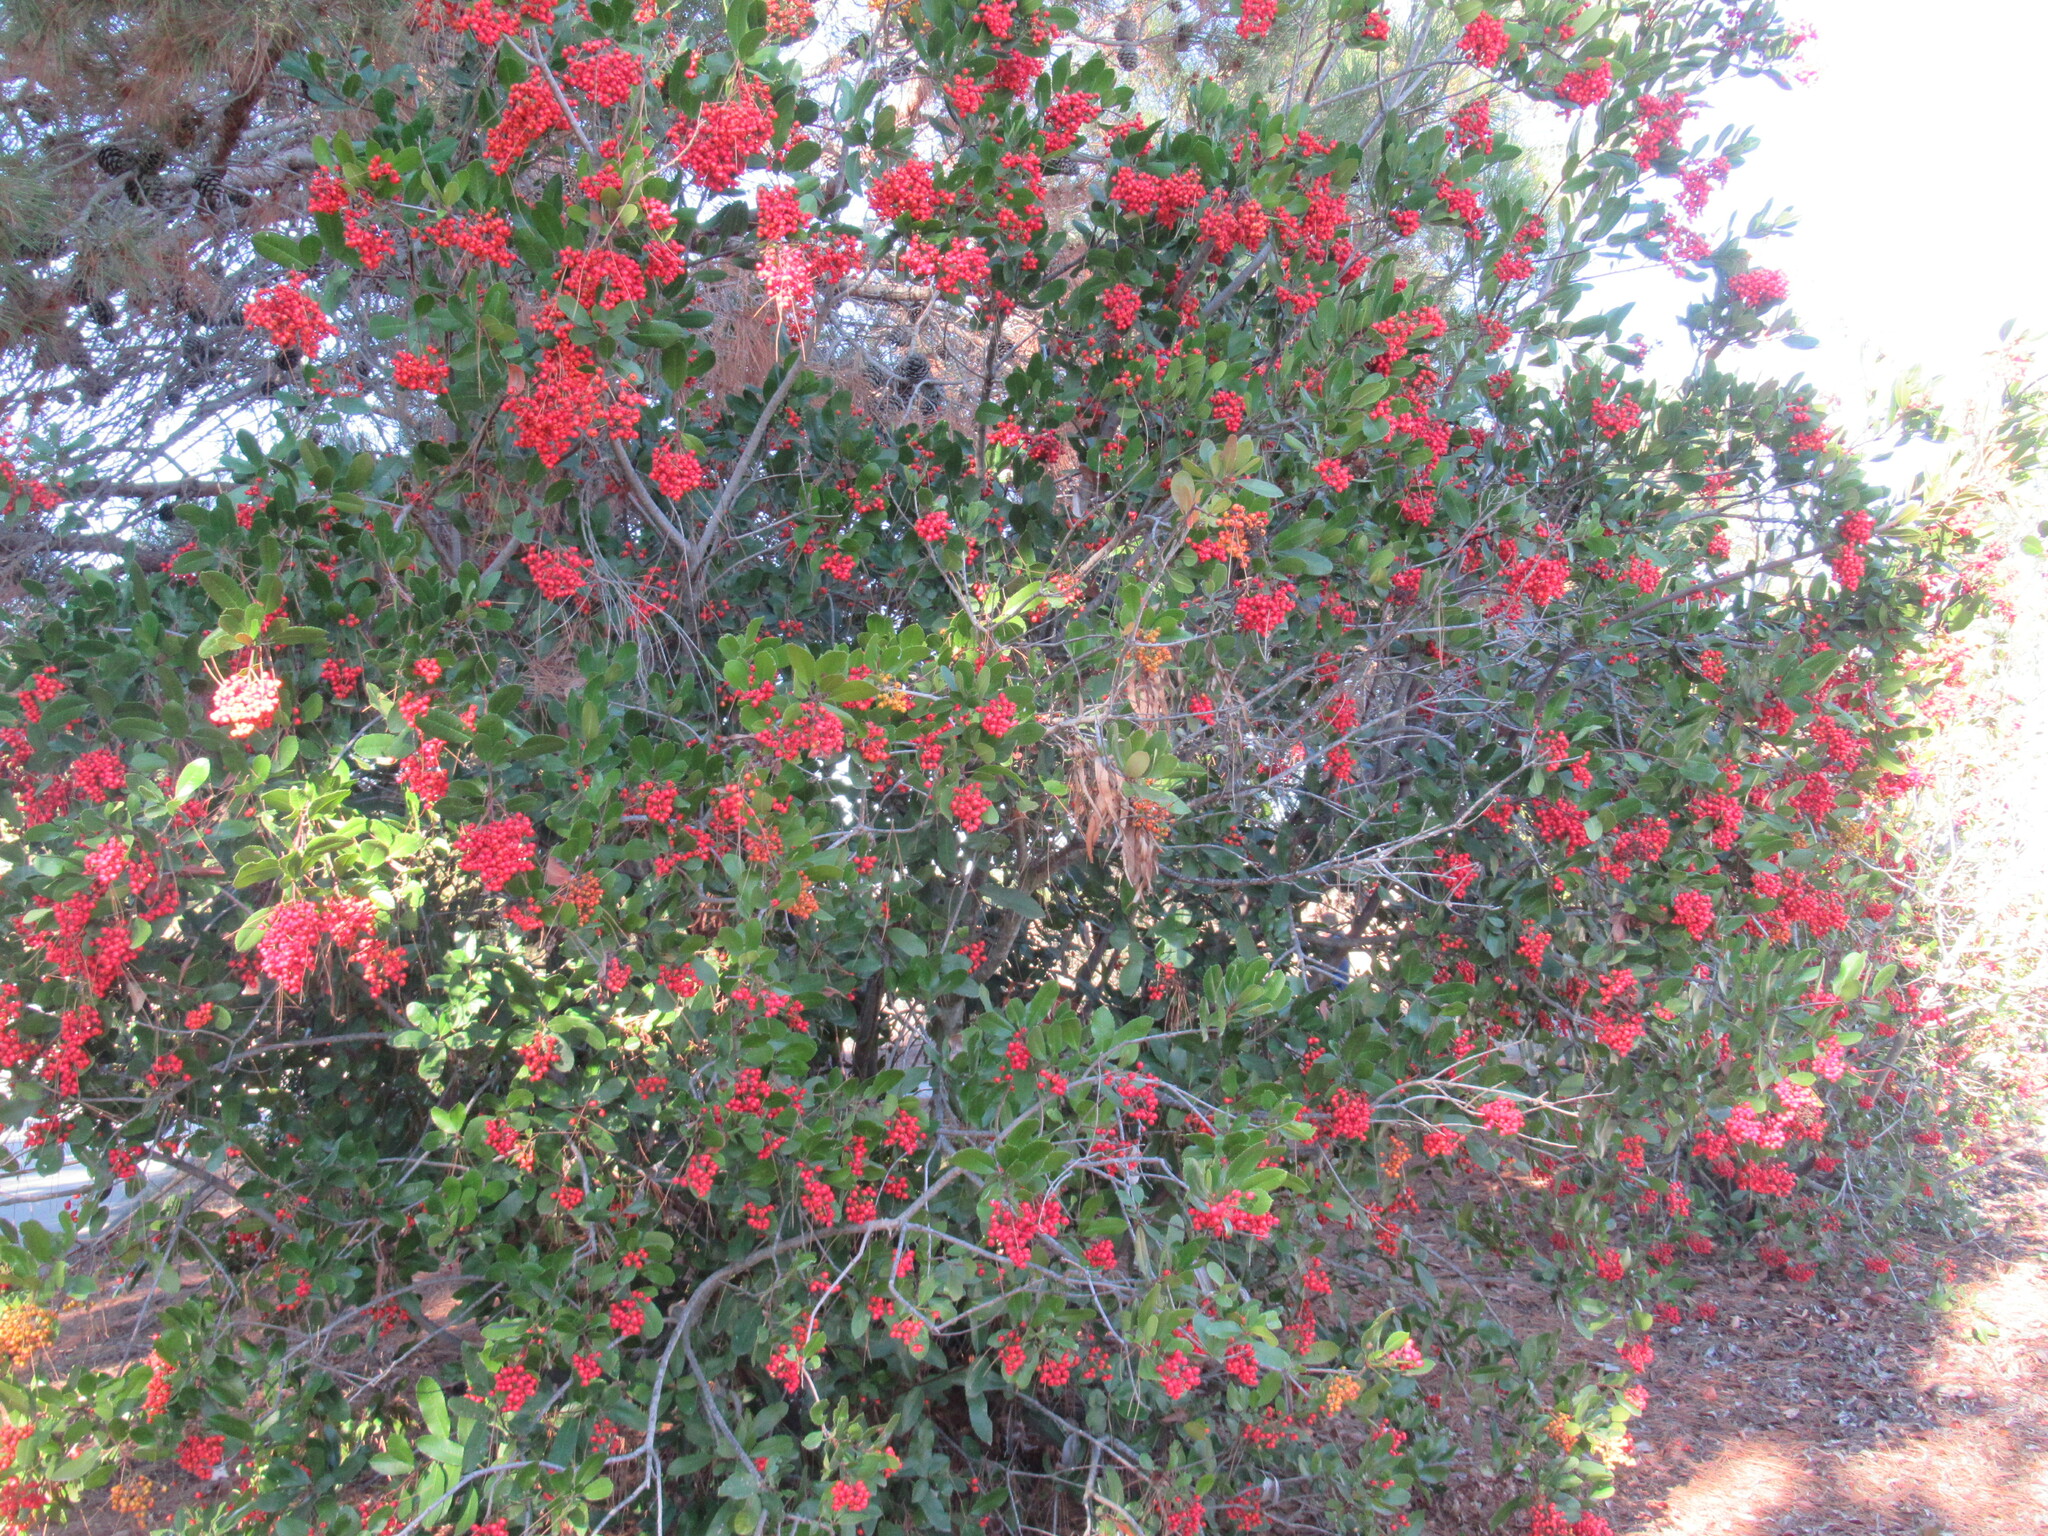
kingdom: Plantae
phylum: Tracheophyta
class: Magnoliopsida
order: Rosales
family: Rosaceae
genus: Heteromeles
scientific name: Heteromeles arbutifolia
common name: California-holly
